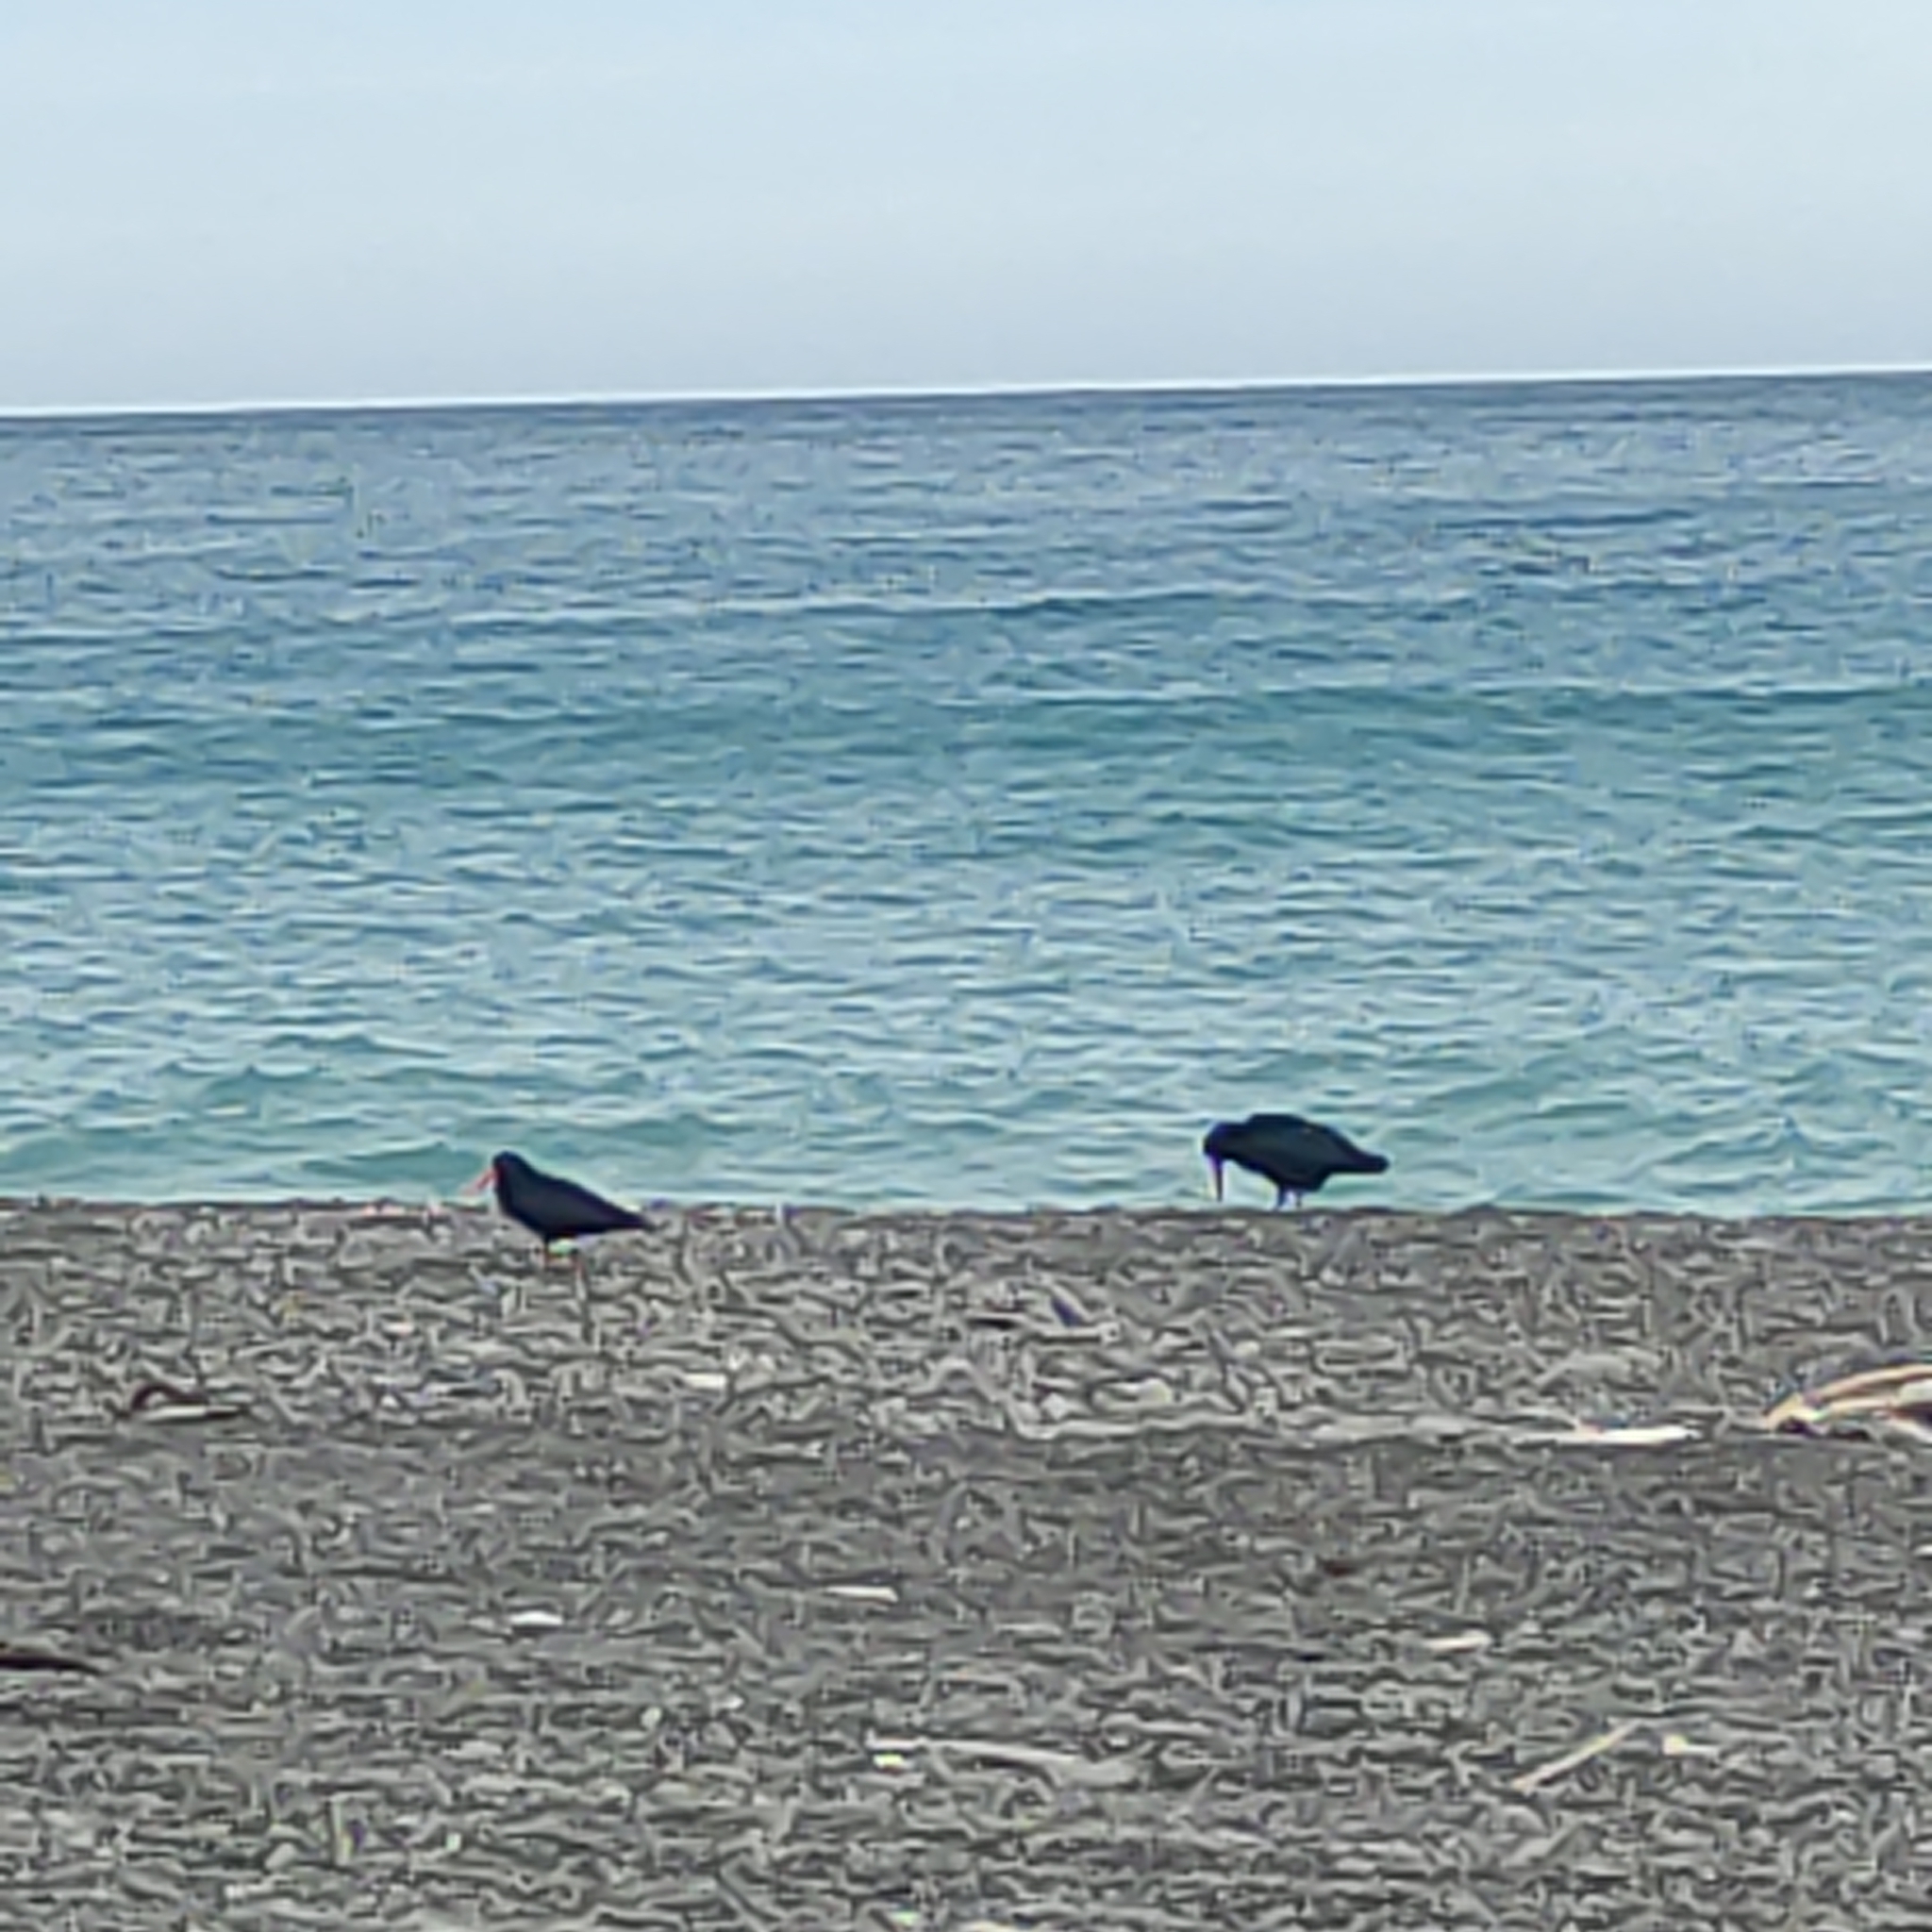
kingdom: Animalia
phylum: Chordata
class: Aves
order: Charadriiformes
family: Haematopodidae
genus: Haematopus
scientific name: Haematopus unicolor
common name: Variable oystercatcher
